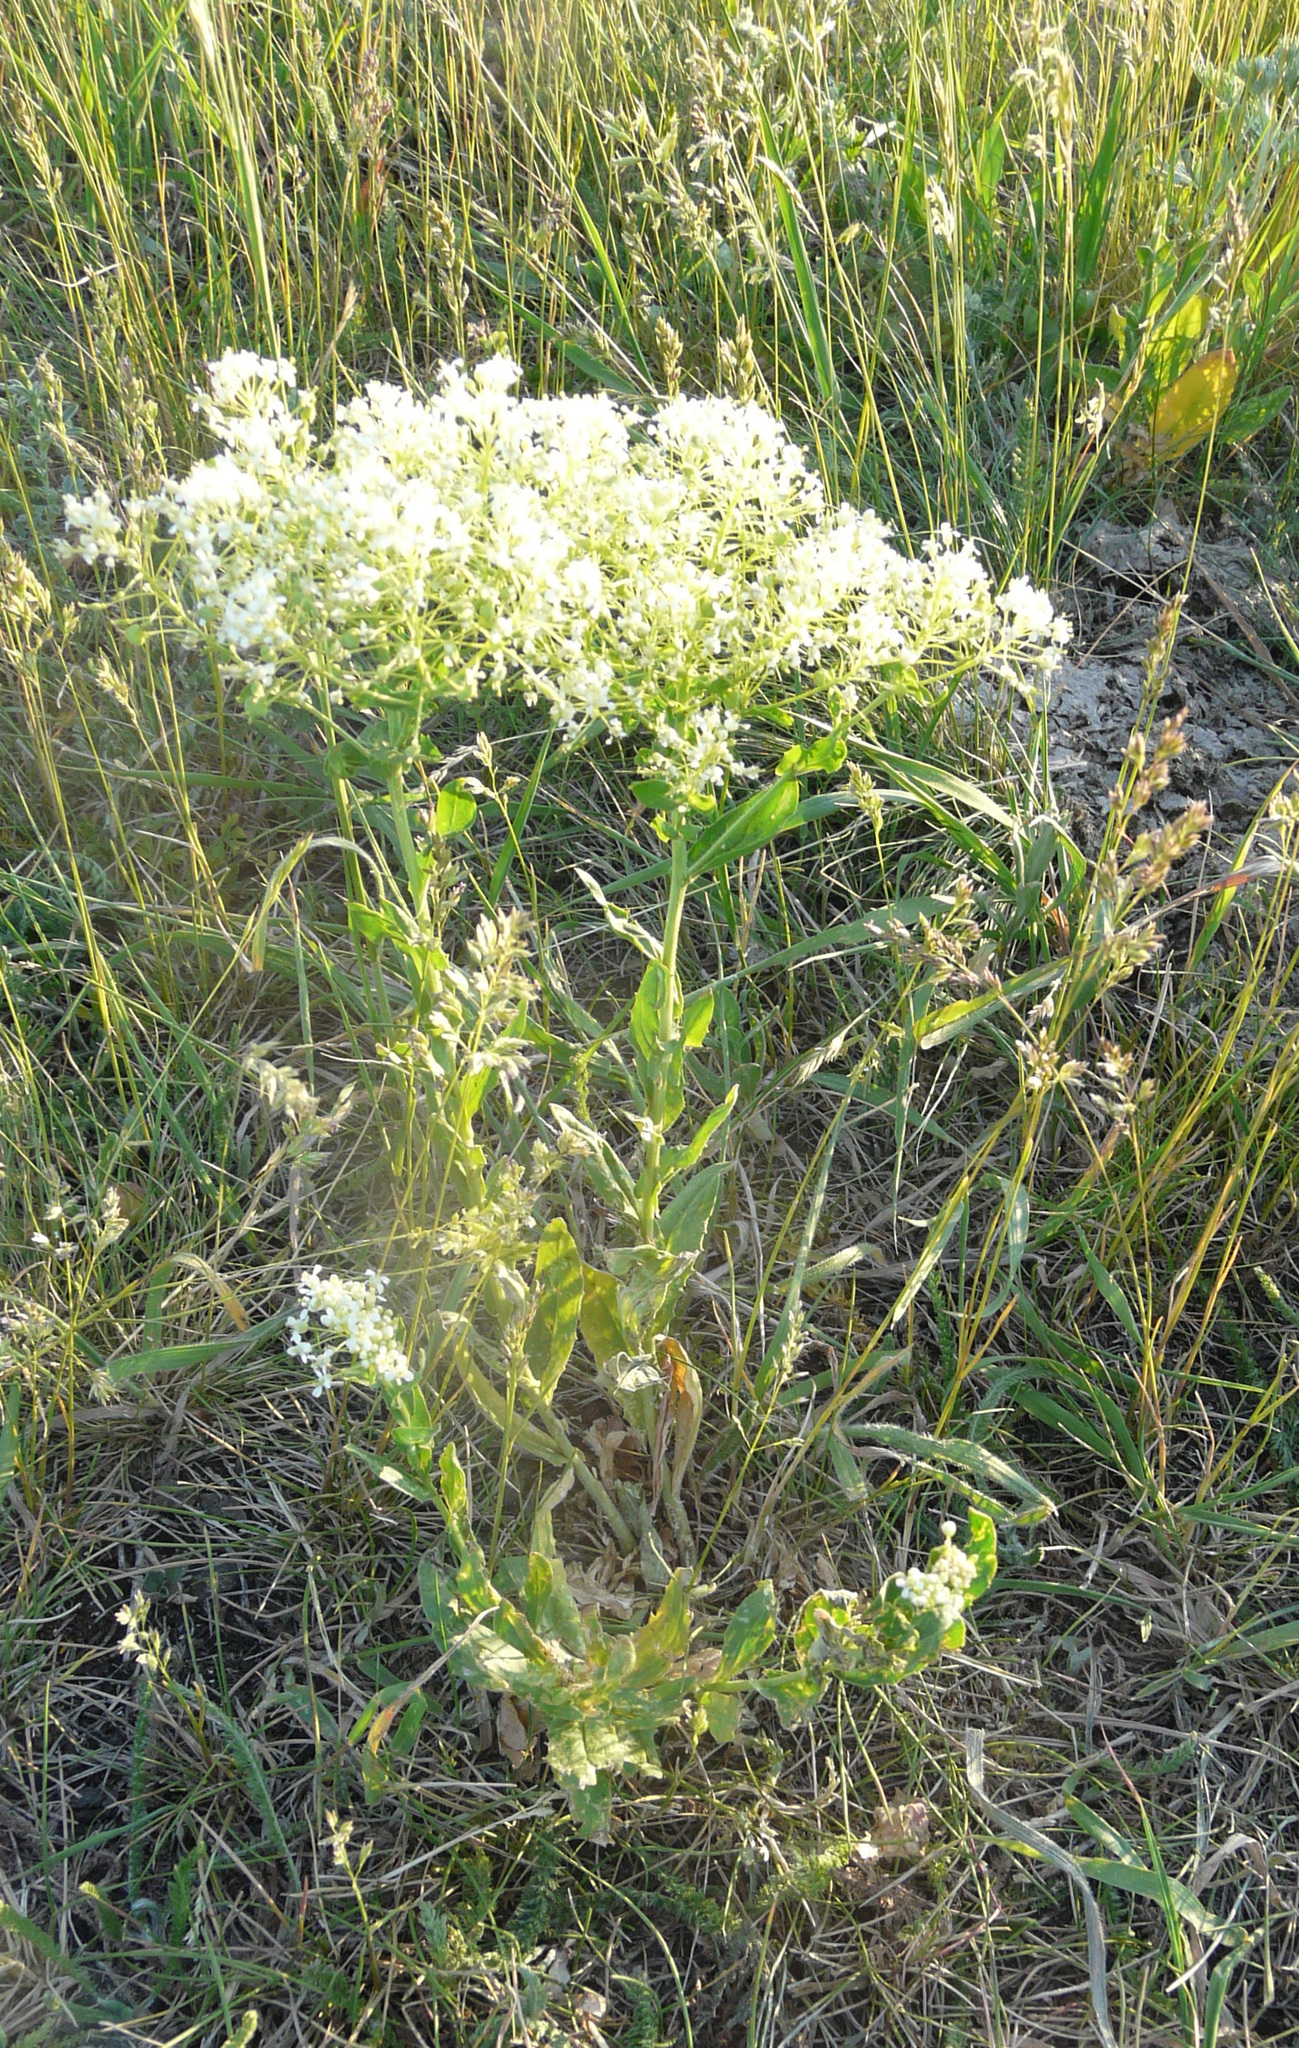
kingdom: Plantae
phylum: Tracheophyta
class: Magnoliopsida
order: Brassicales
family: Brassicaceae
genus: Lepidium
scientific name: Lepidium draba
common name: Hoary cress
